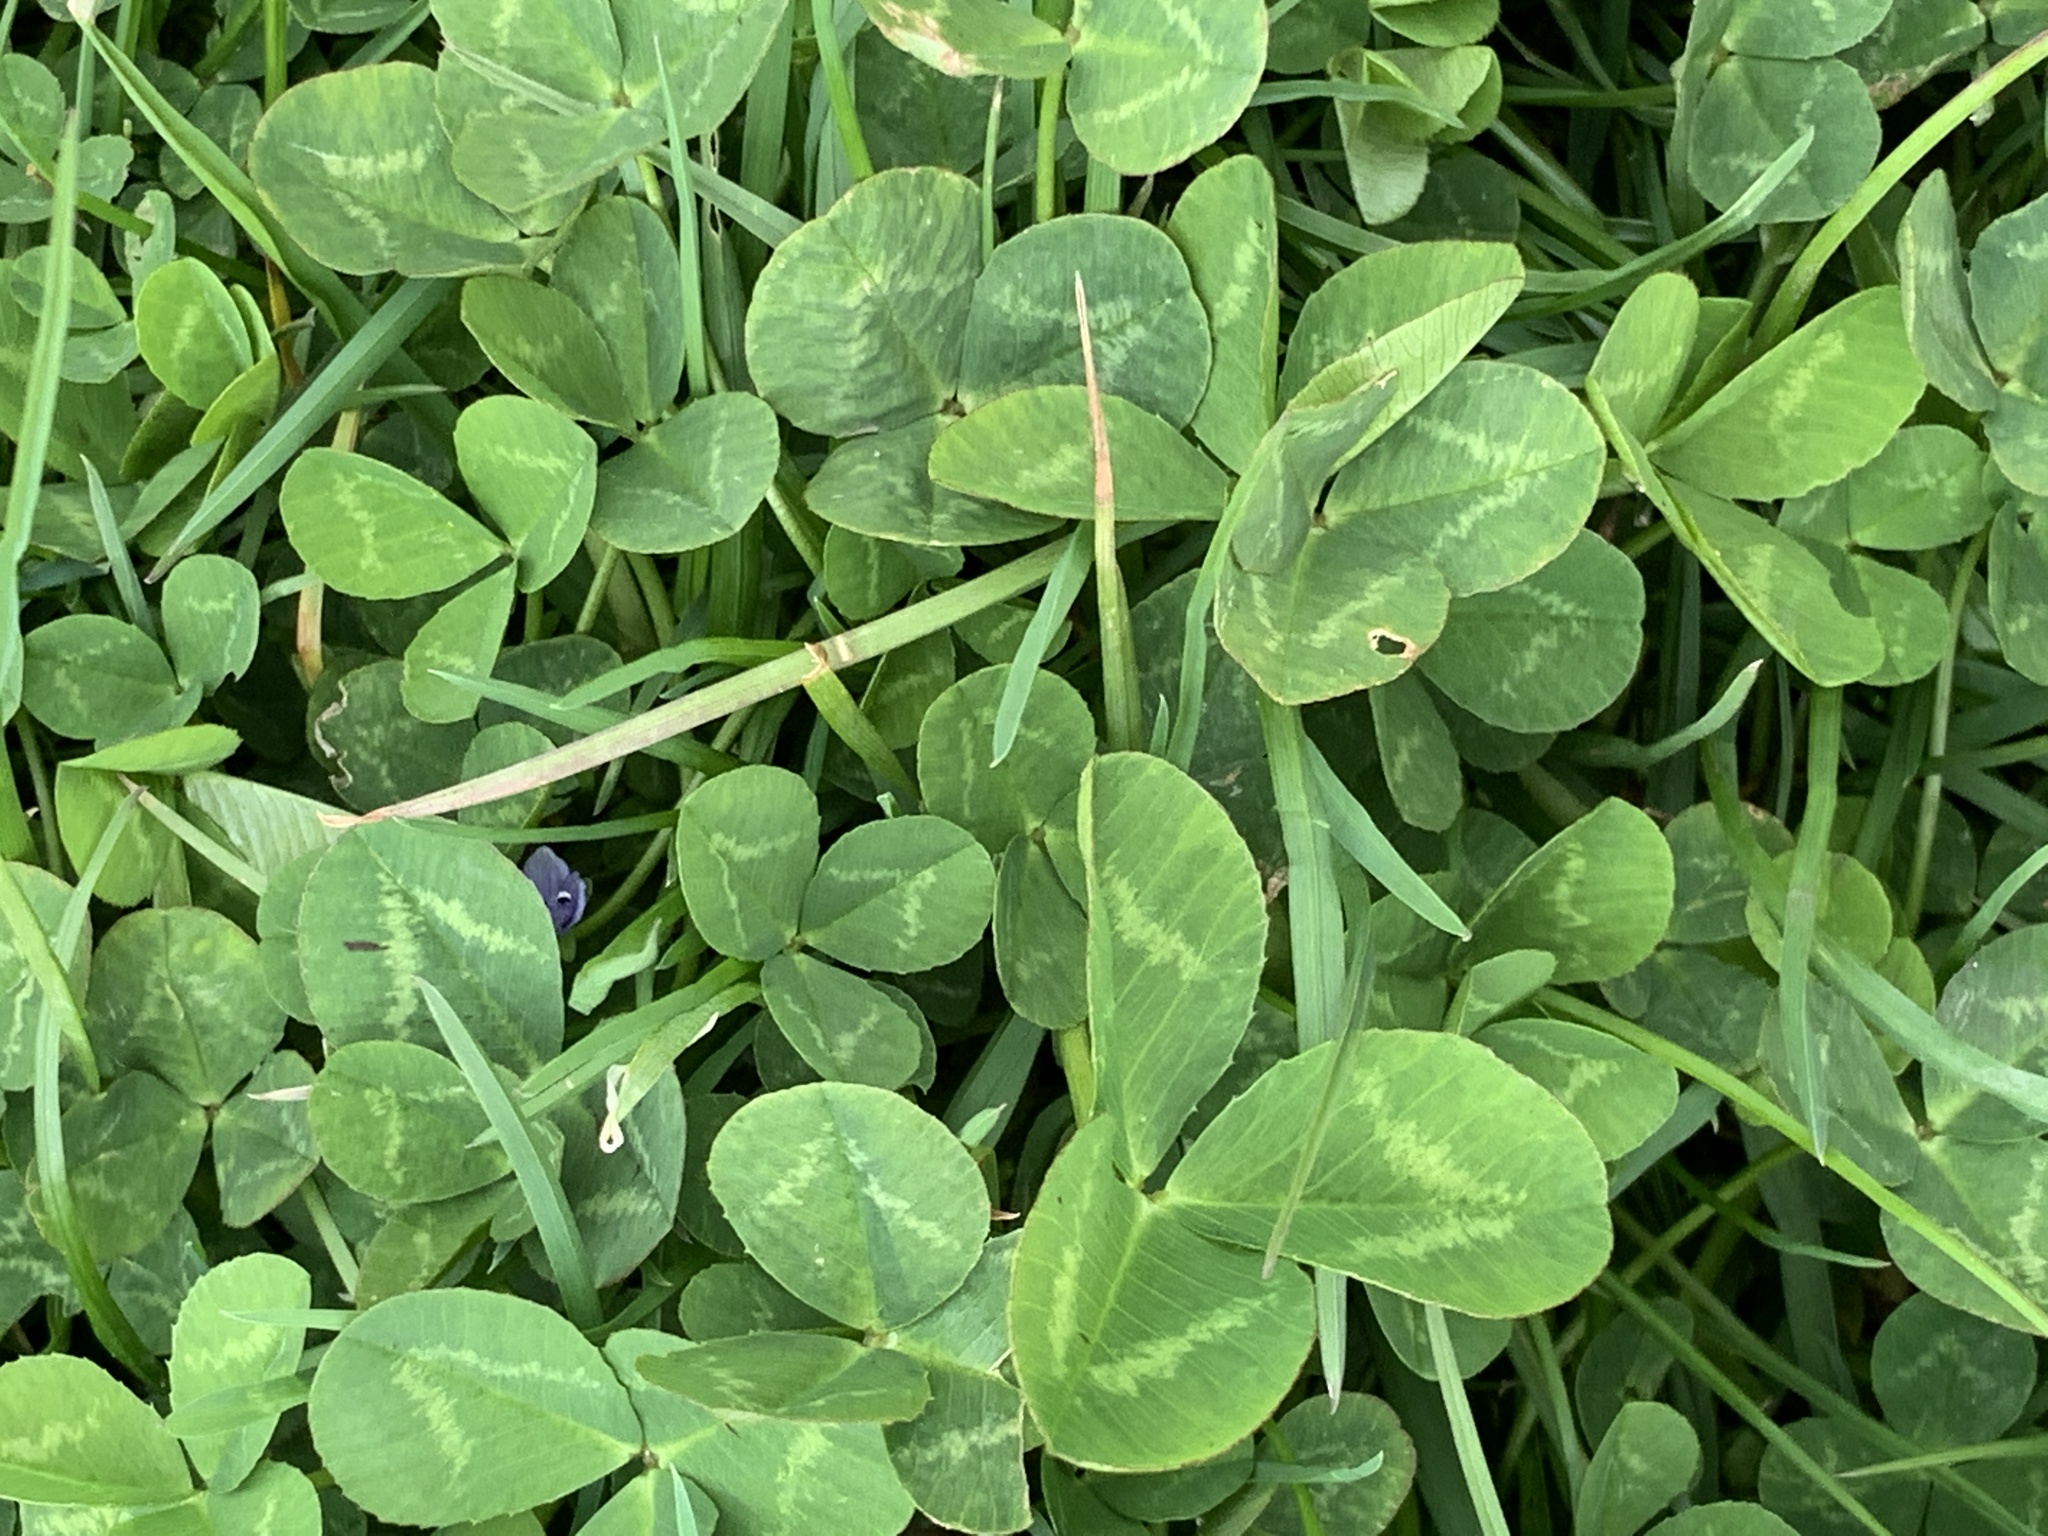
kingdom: Plantae
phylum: Tracheophyta
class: Magnoliopsida
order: Fabales
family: Fabaceae
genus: Trifolium
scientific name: Trifolium repens
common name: White clover
